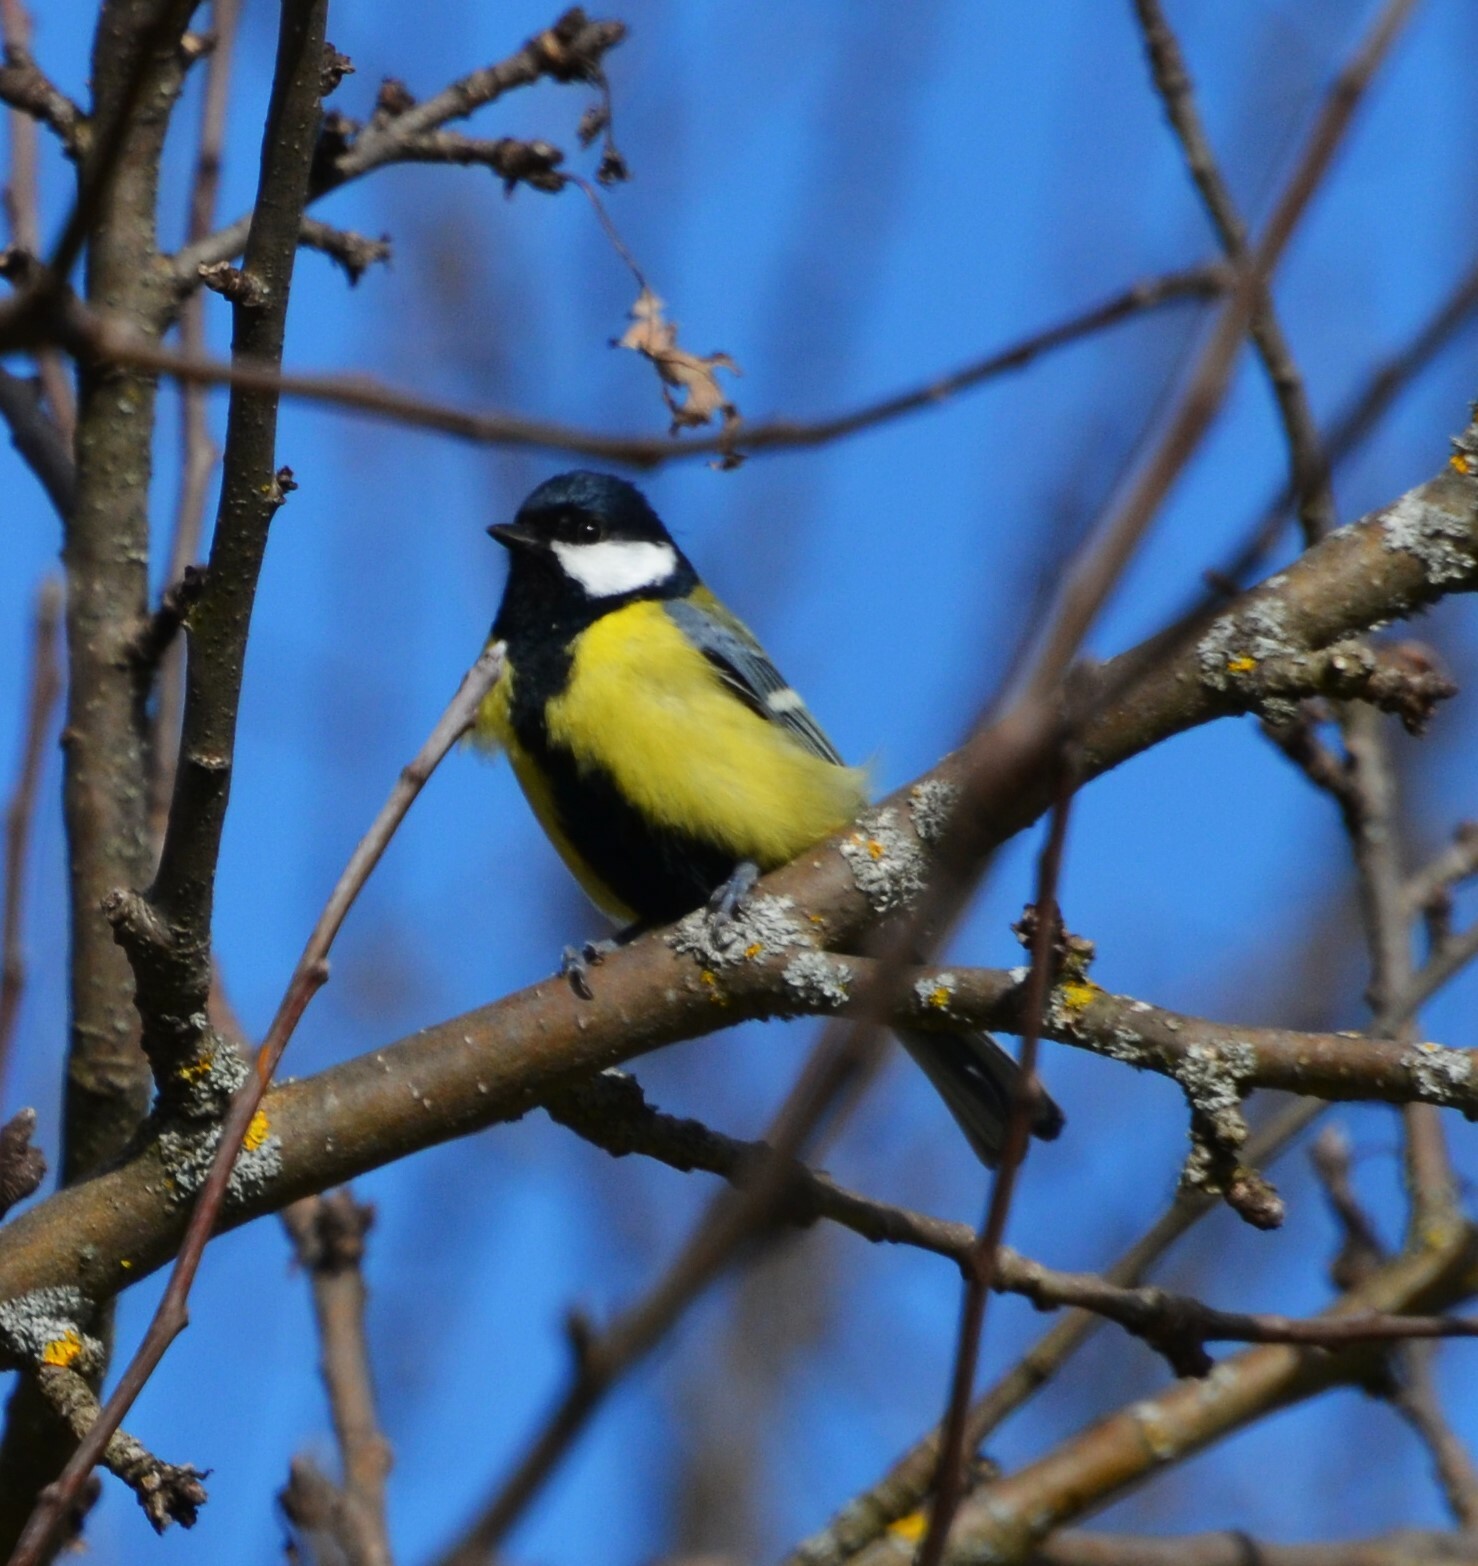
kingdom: Animalia
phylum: Chordata
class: Aves
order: Passeriformes
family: Paridae
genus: Parus
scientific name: Parus major
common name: Great tit
